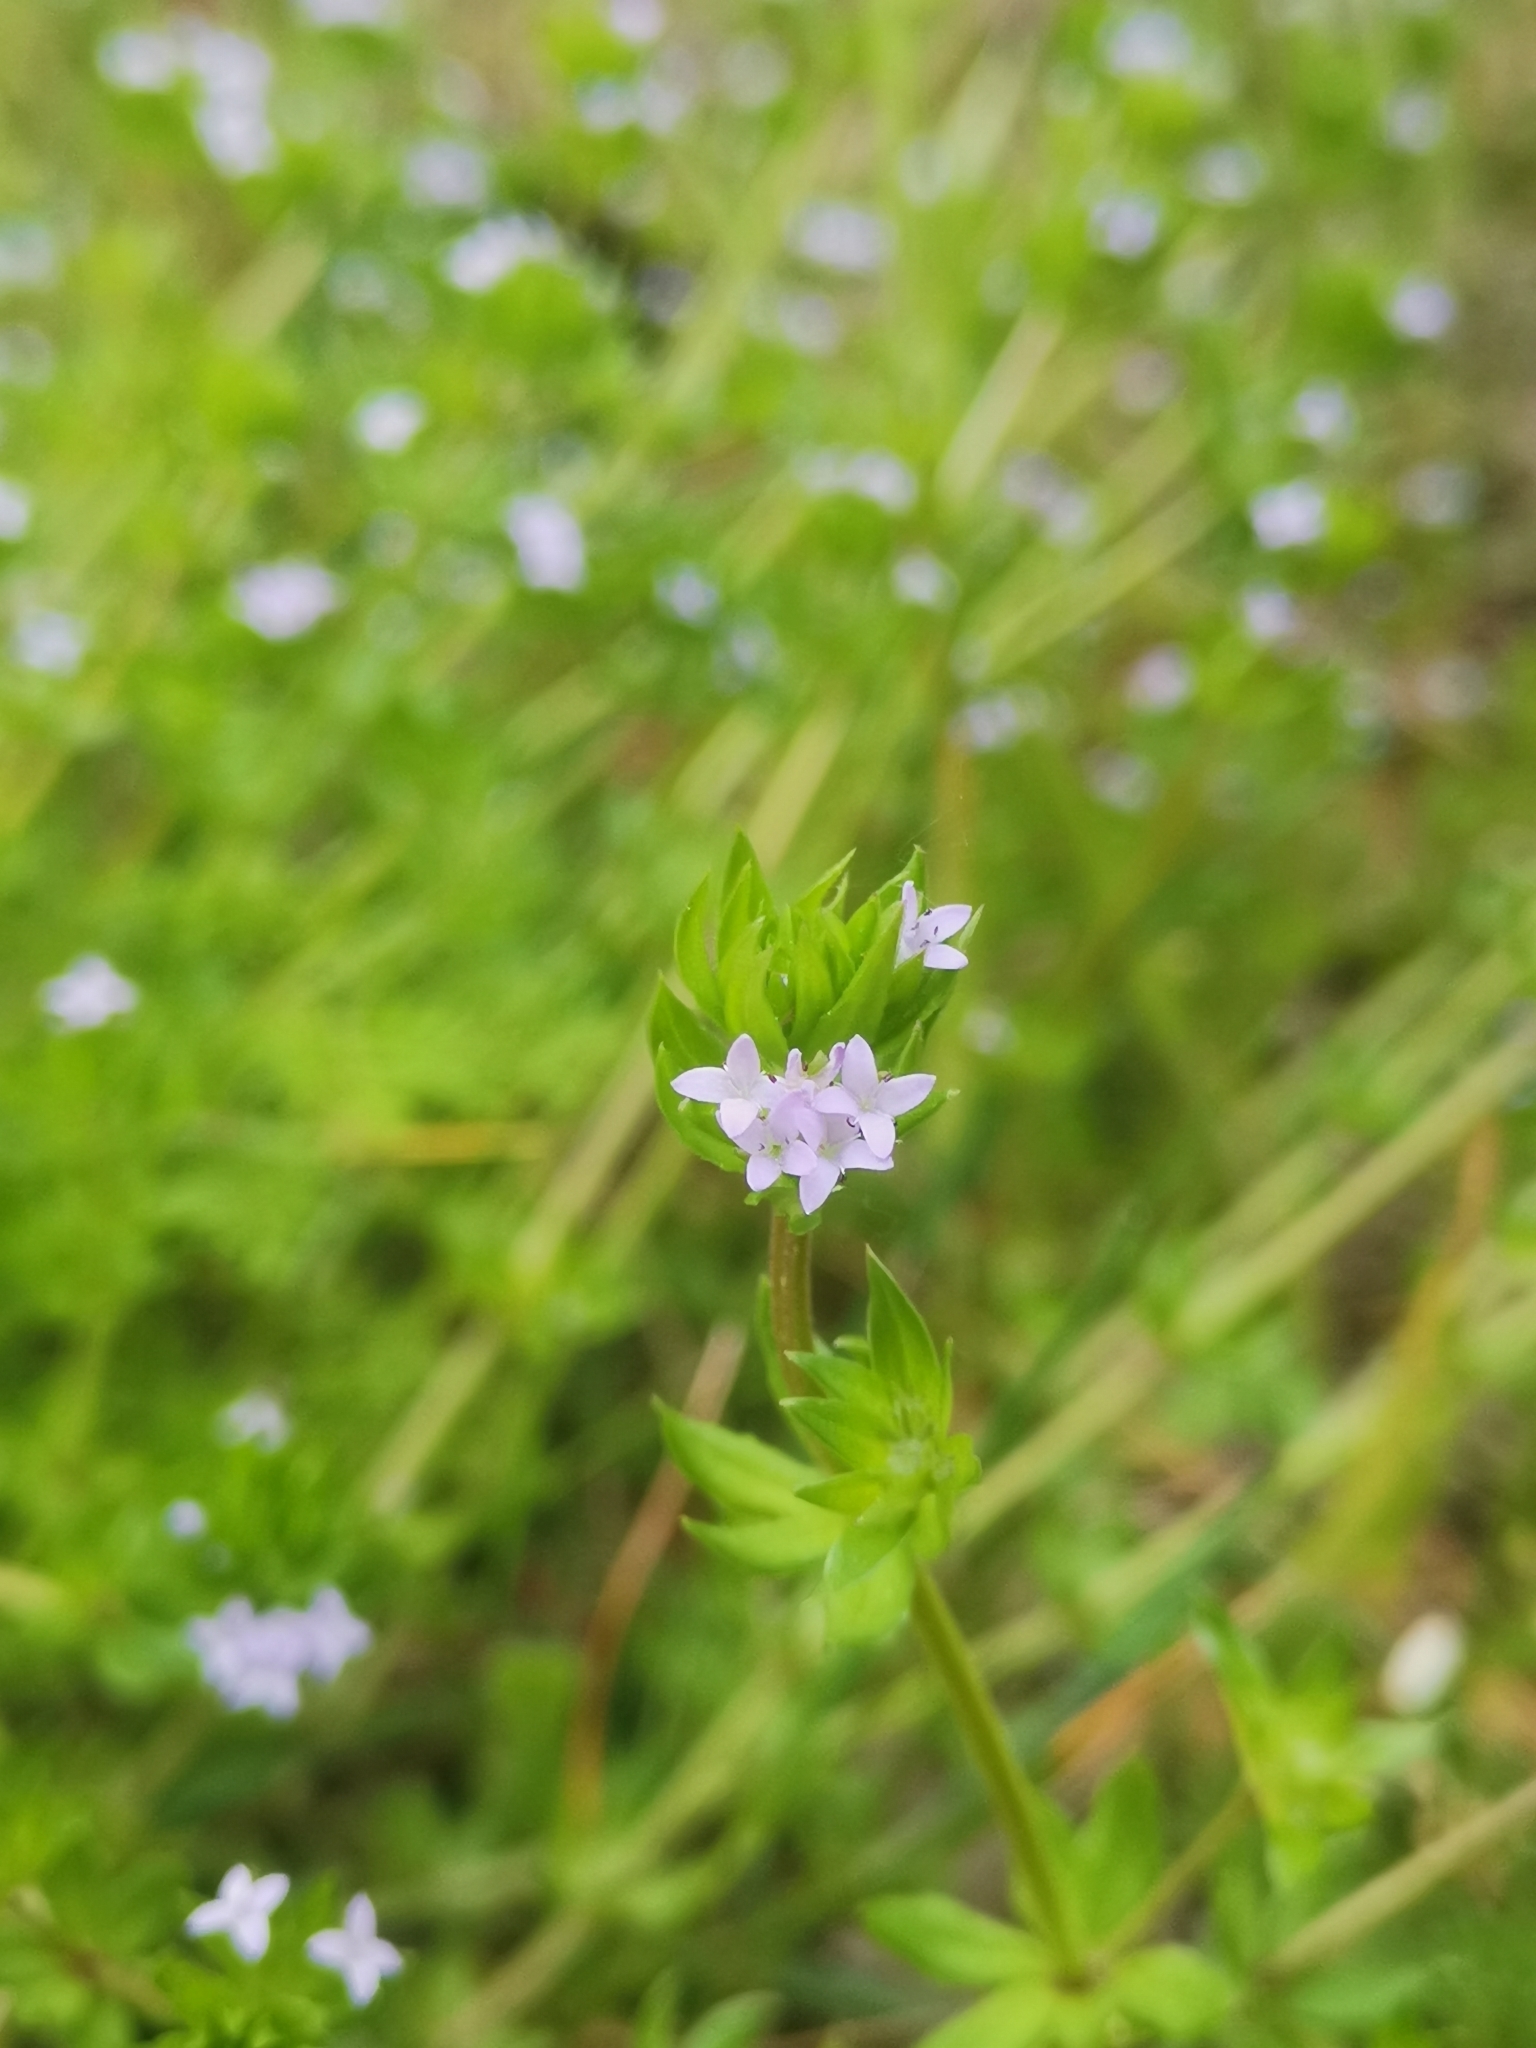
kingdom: Plantae
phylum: Tracheophyta
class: Magnoliopsida
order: Gentianales
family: Rubiaceae
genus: Sherardia
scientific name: Sherardia arvensis
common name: Field madder
